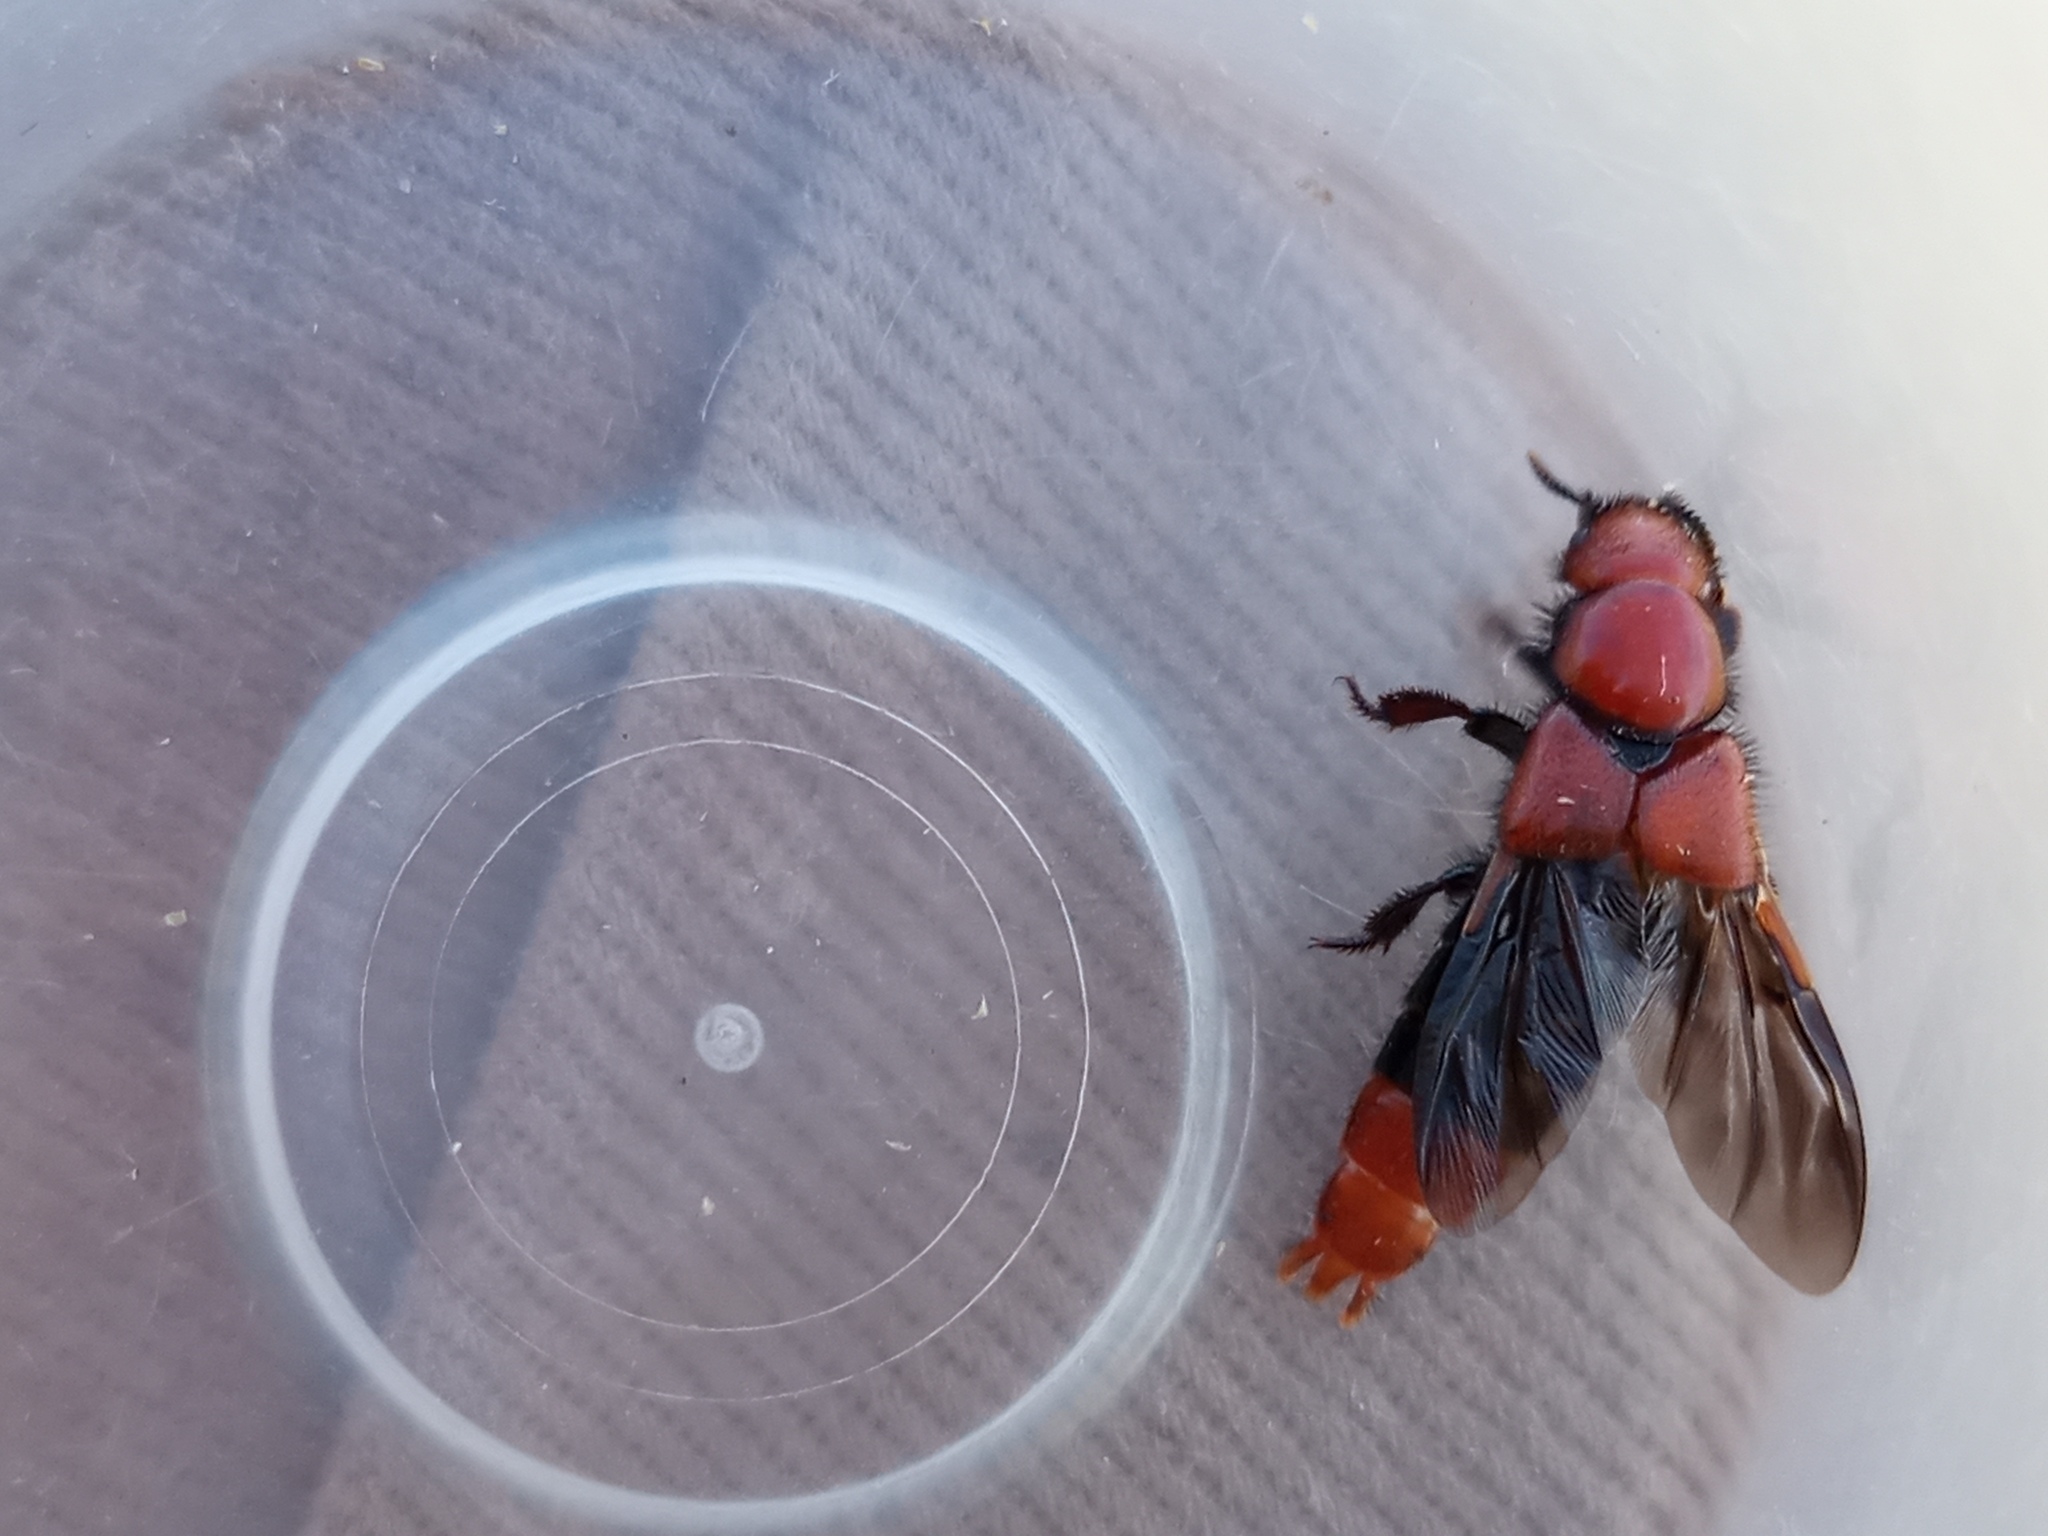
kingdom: Animalia
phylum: Arthropoda
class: Insecta
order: Coleoptera
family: Staphylinidae
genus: Haematodes
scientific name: Haematodes bicolor
